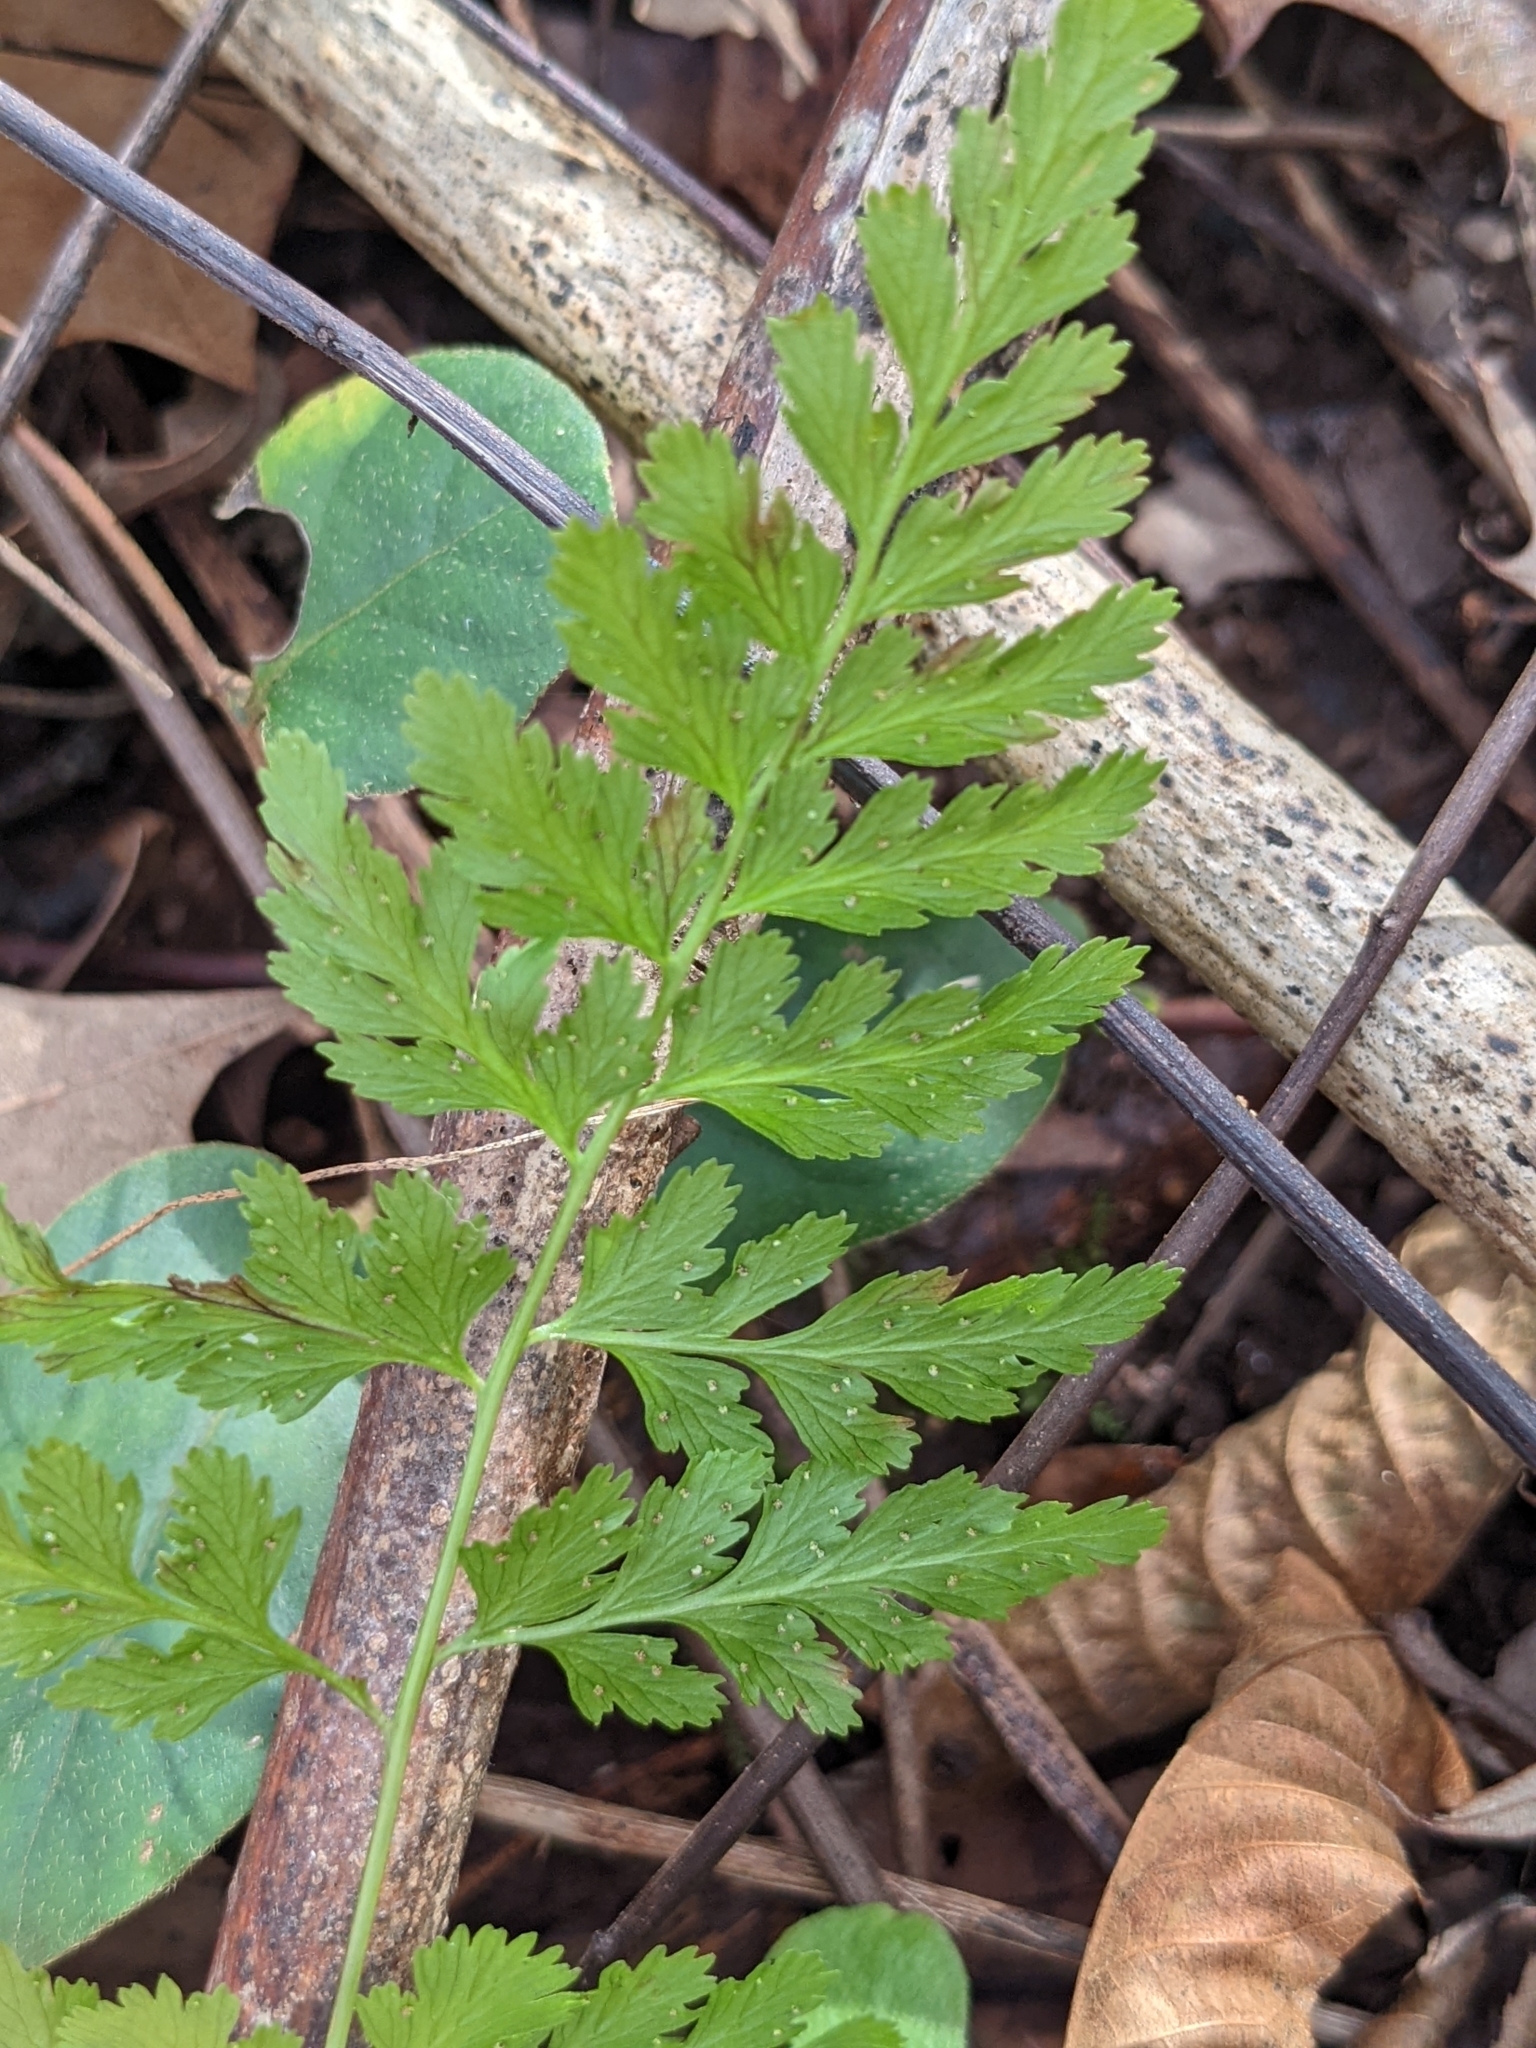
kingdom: Plantae
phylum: Tracheophyta
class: Polypodiopsida
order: Polypodiales
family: Cystopteridaceae
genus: Cystopteris
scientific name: Cystopteris protrusa
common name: Lowland brittle fern
